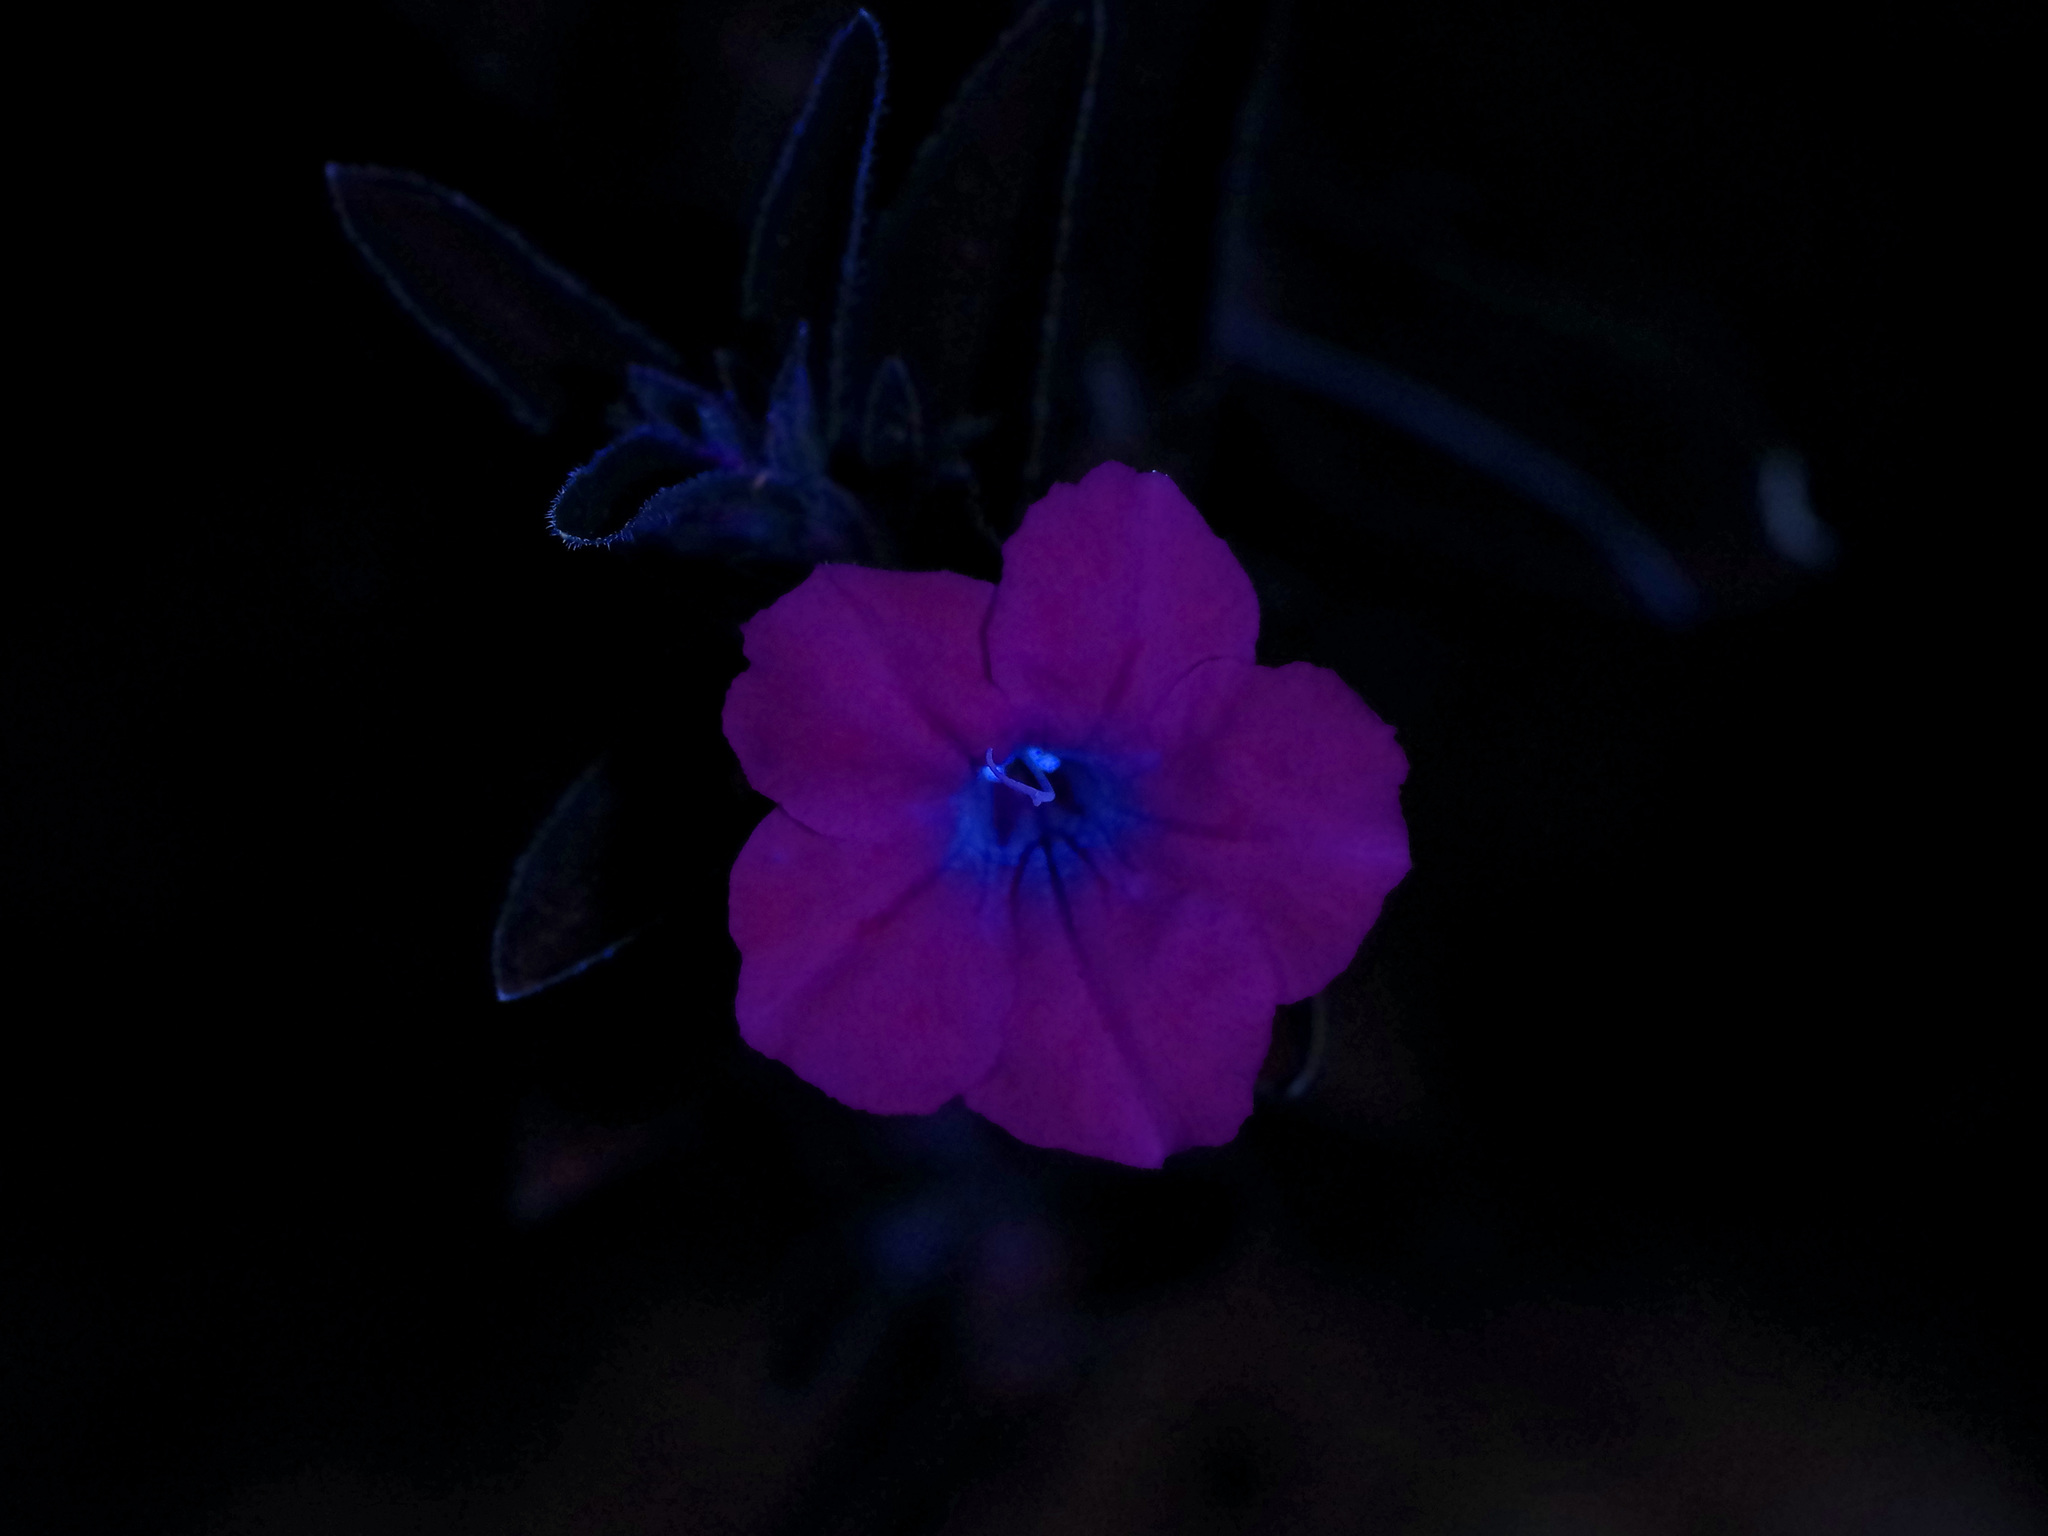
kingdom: Plantae
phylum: Tracheophyta
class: Magnoliopsida
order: Lamiales
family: Acanthaceae
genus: Ruellia
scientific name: Ruellia humilis
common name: Fringe-leaf ruellia
